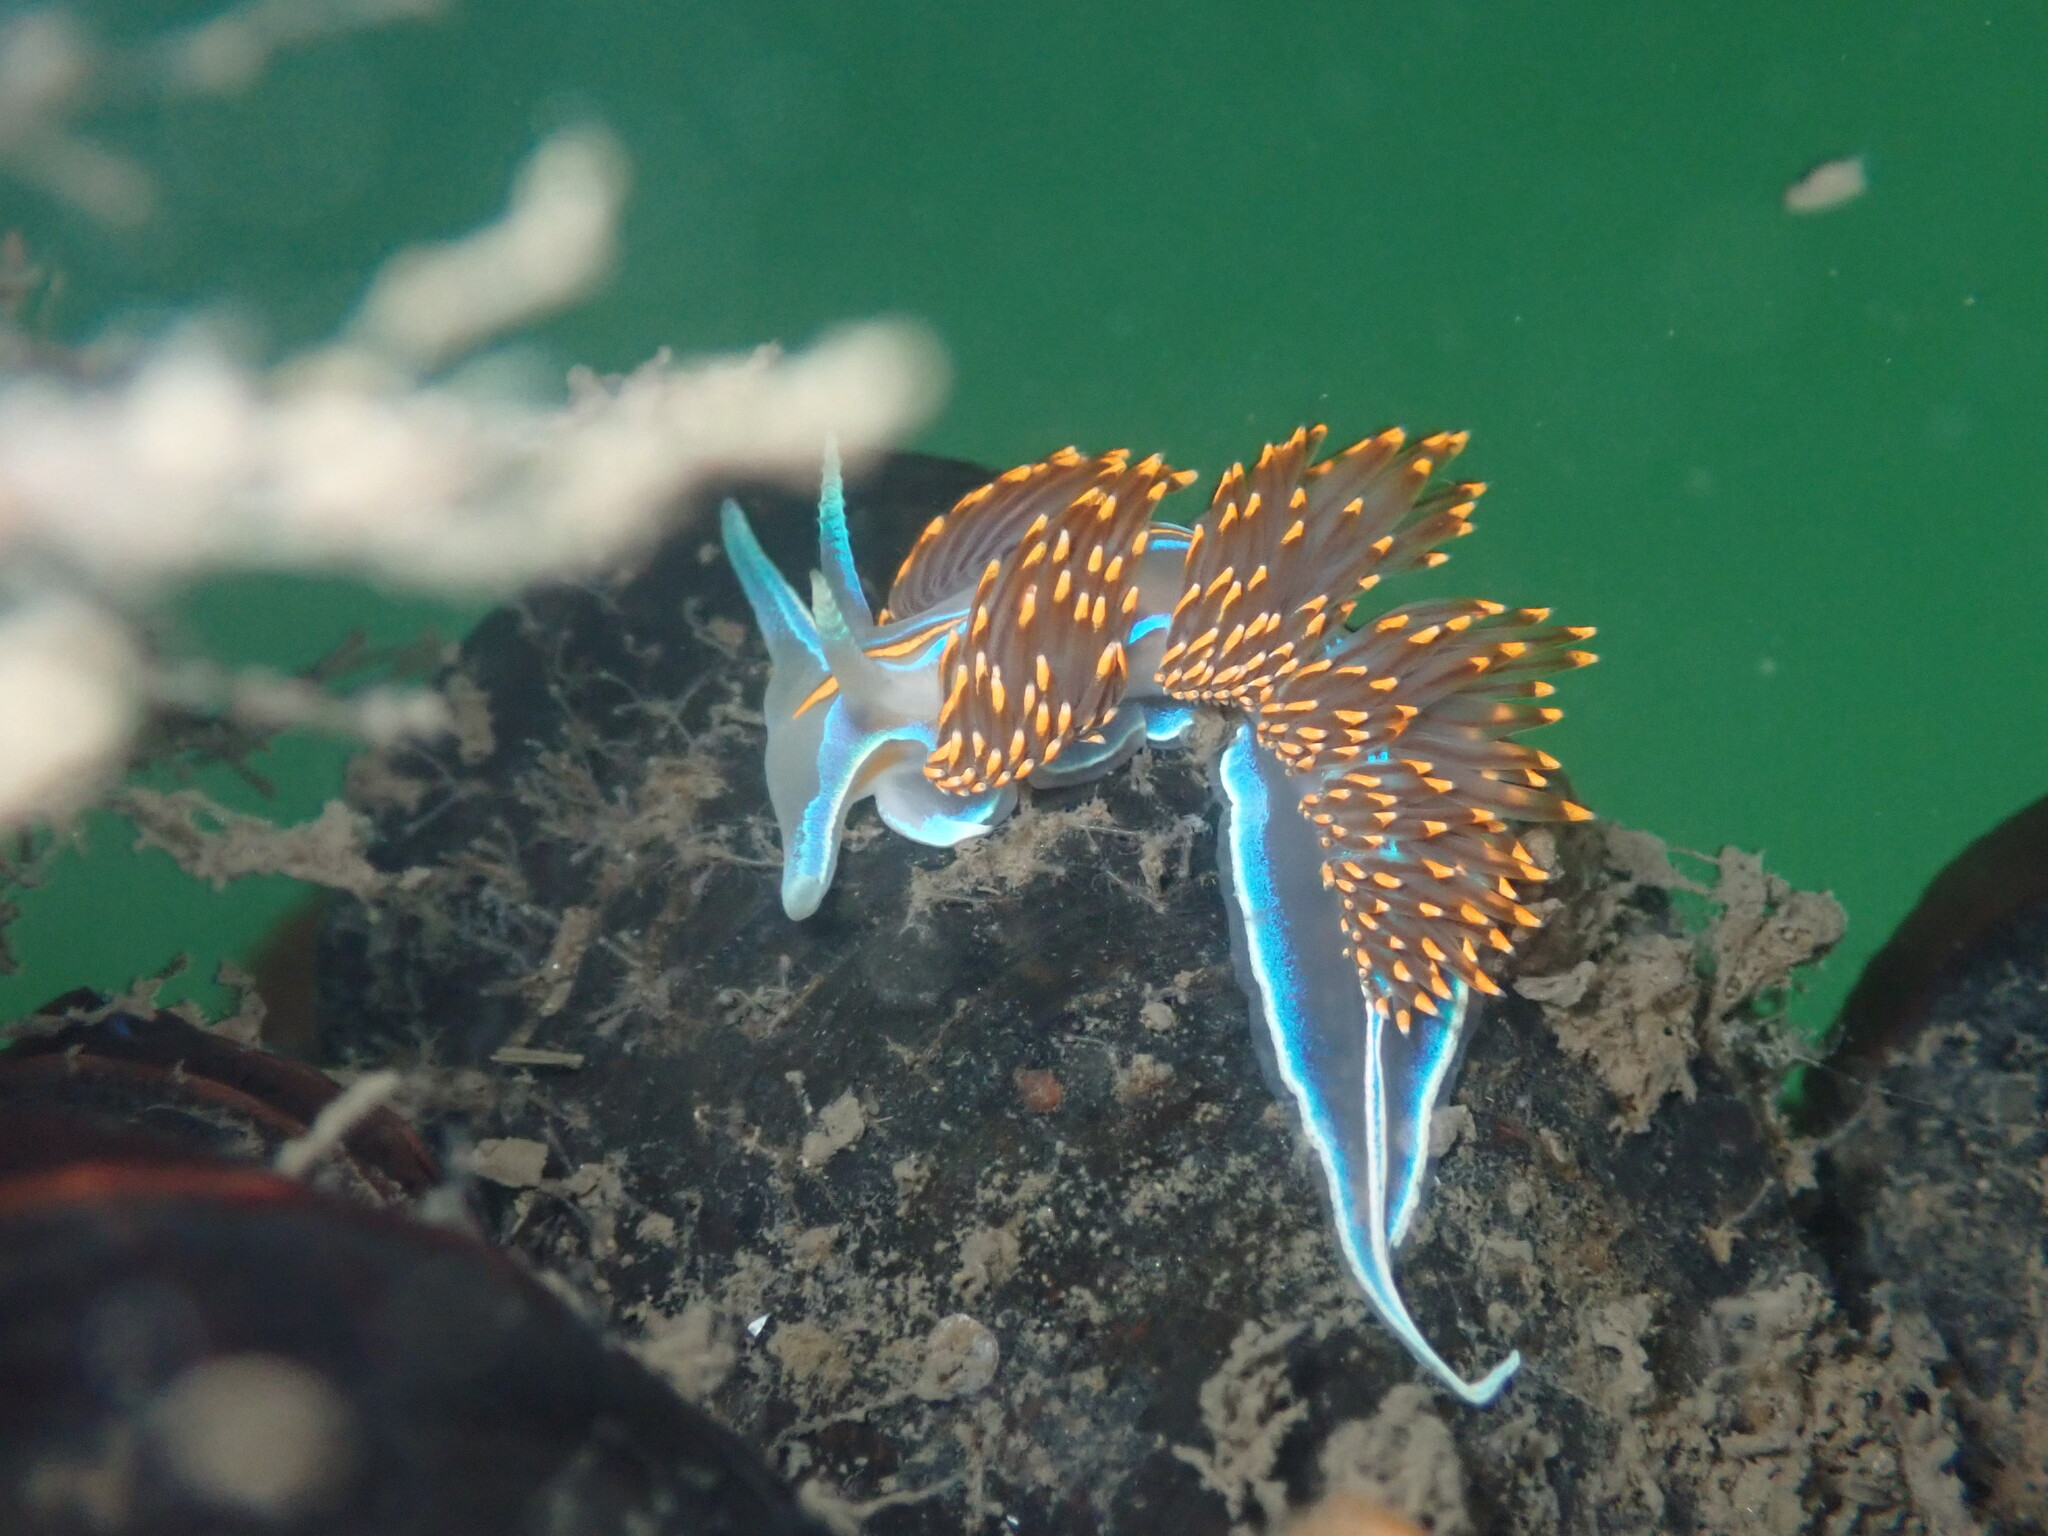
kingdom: Animalia
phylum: Mollusca
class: Gastropoda
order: Nudibranchia
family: Myrrhinidae
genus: Hermissenda
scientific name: Hermissenda opalescens
